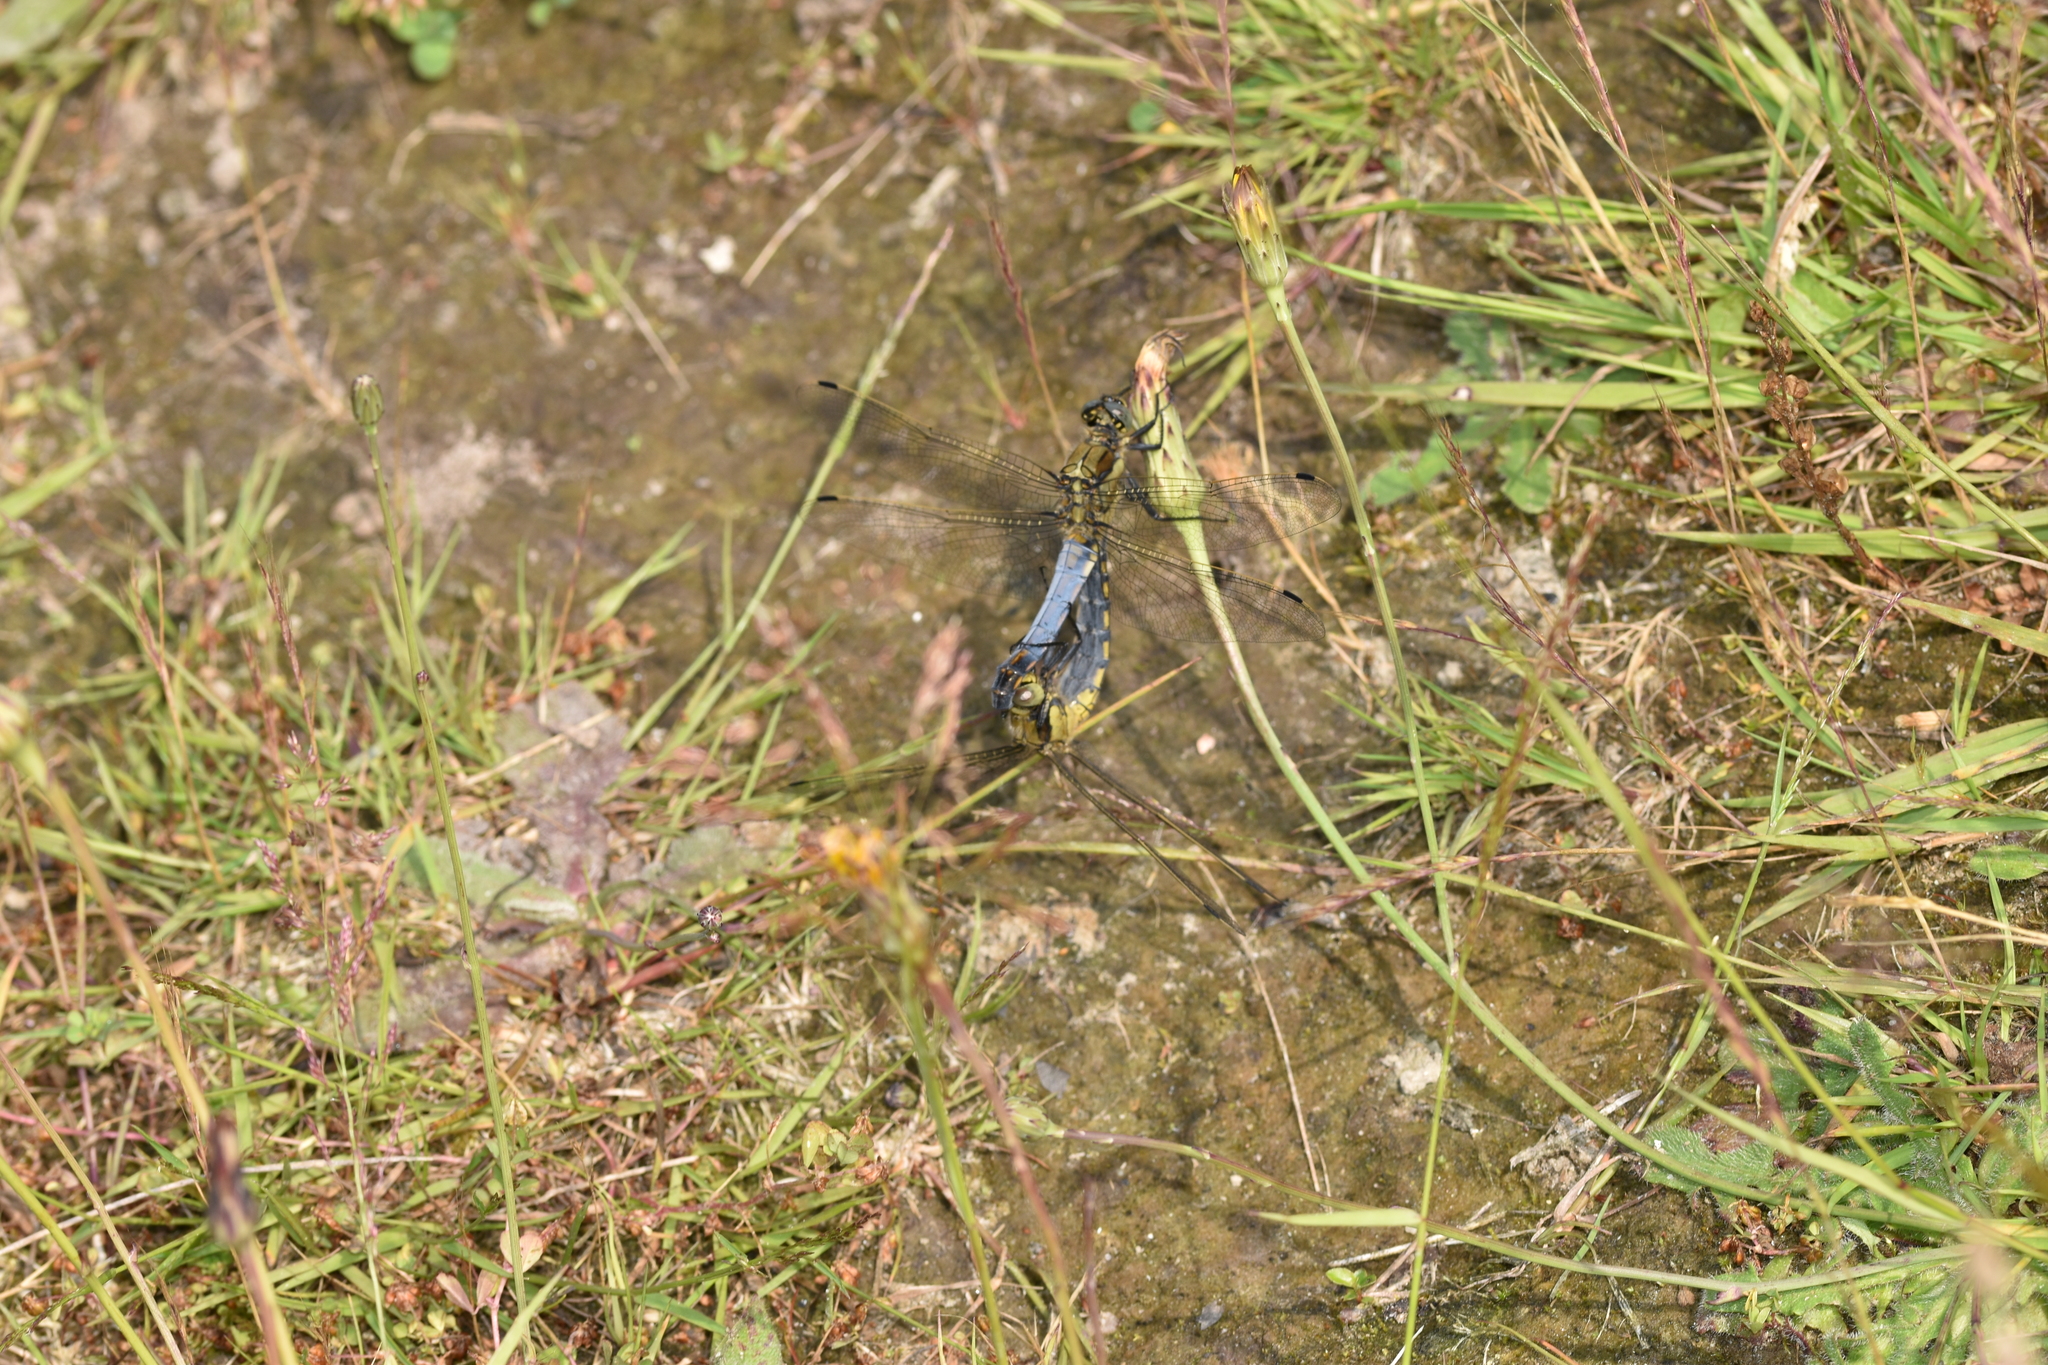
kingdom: Animalia
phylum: Arthropoda
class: Insecta
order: Odonata
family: Libellulidae
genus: Orthetrum
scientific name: Orthetrum cancellatum
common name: Black-tailed skimmer
